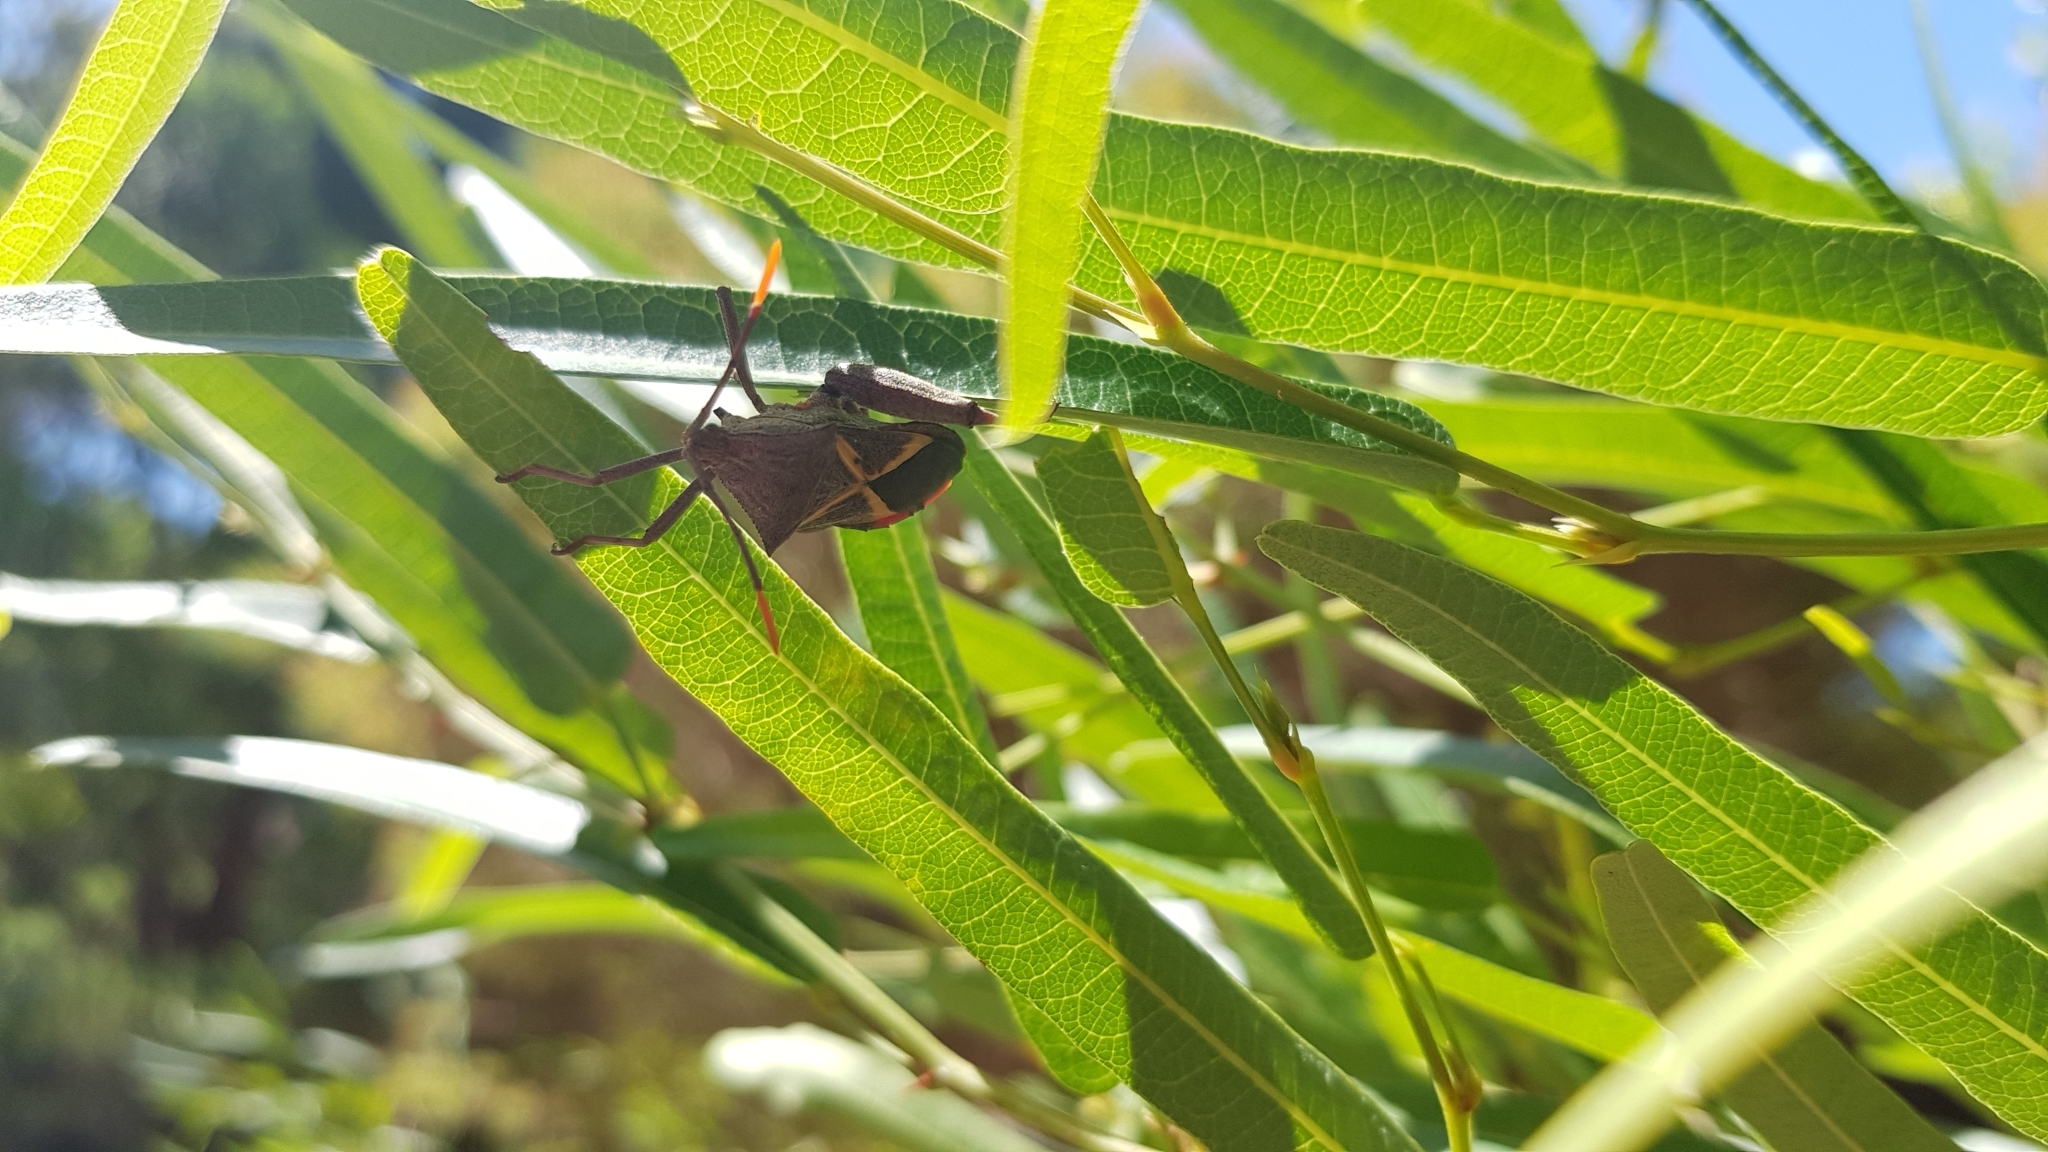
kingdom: Animalia
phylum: Arthropoda
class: Insecta
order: Hemiptera
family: Coreidae
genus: Mictis
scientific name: Mictis profana
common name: Crusader bug
